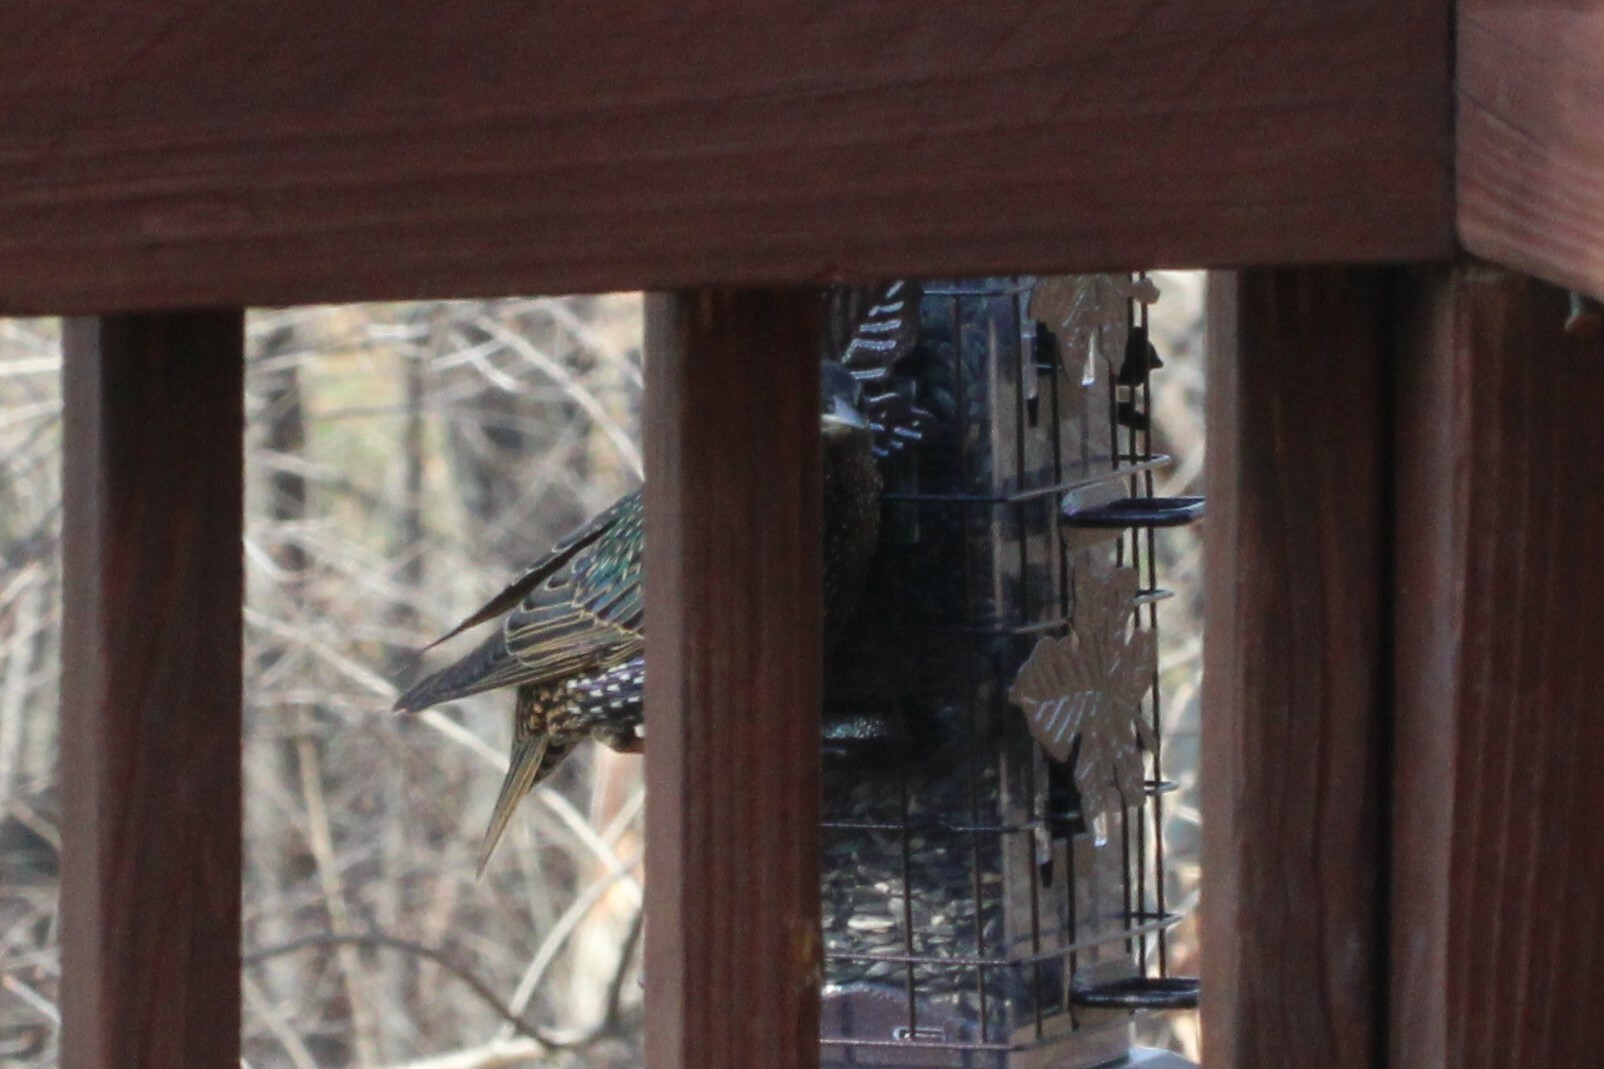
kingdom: Animalia
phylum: Chordata
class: Aves
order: Passeriformes
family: Sturnidae
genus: Sturnus
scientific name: Sturnus vulgaris
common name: Common starling
